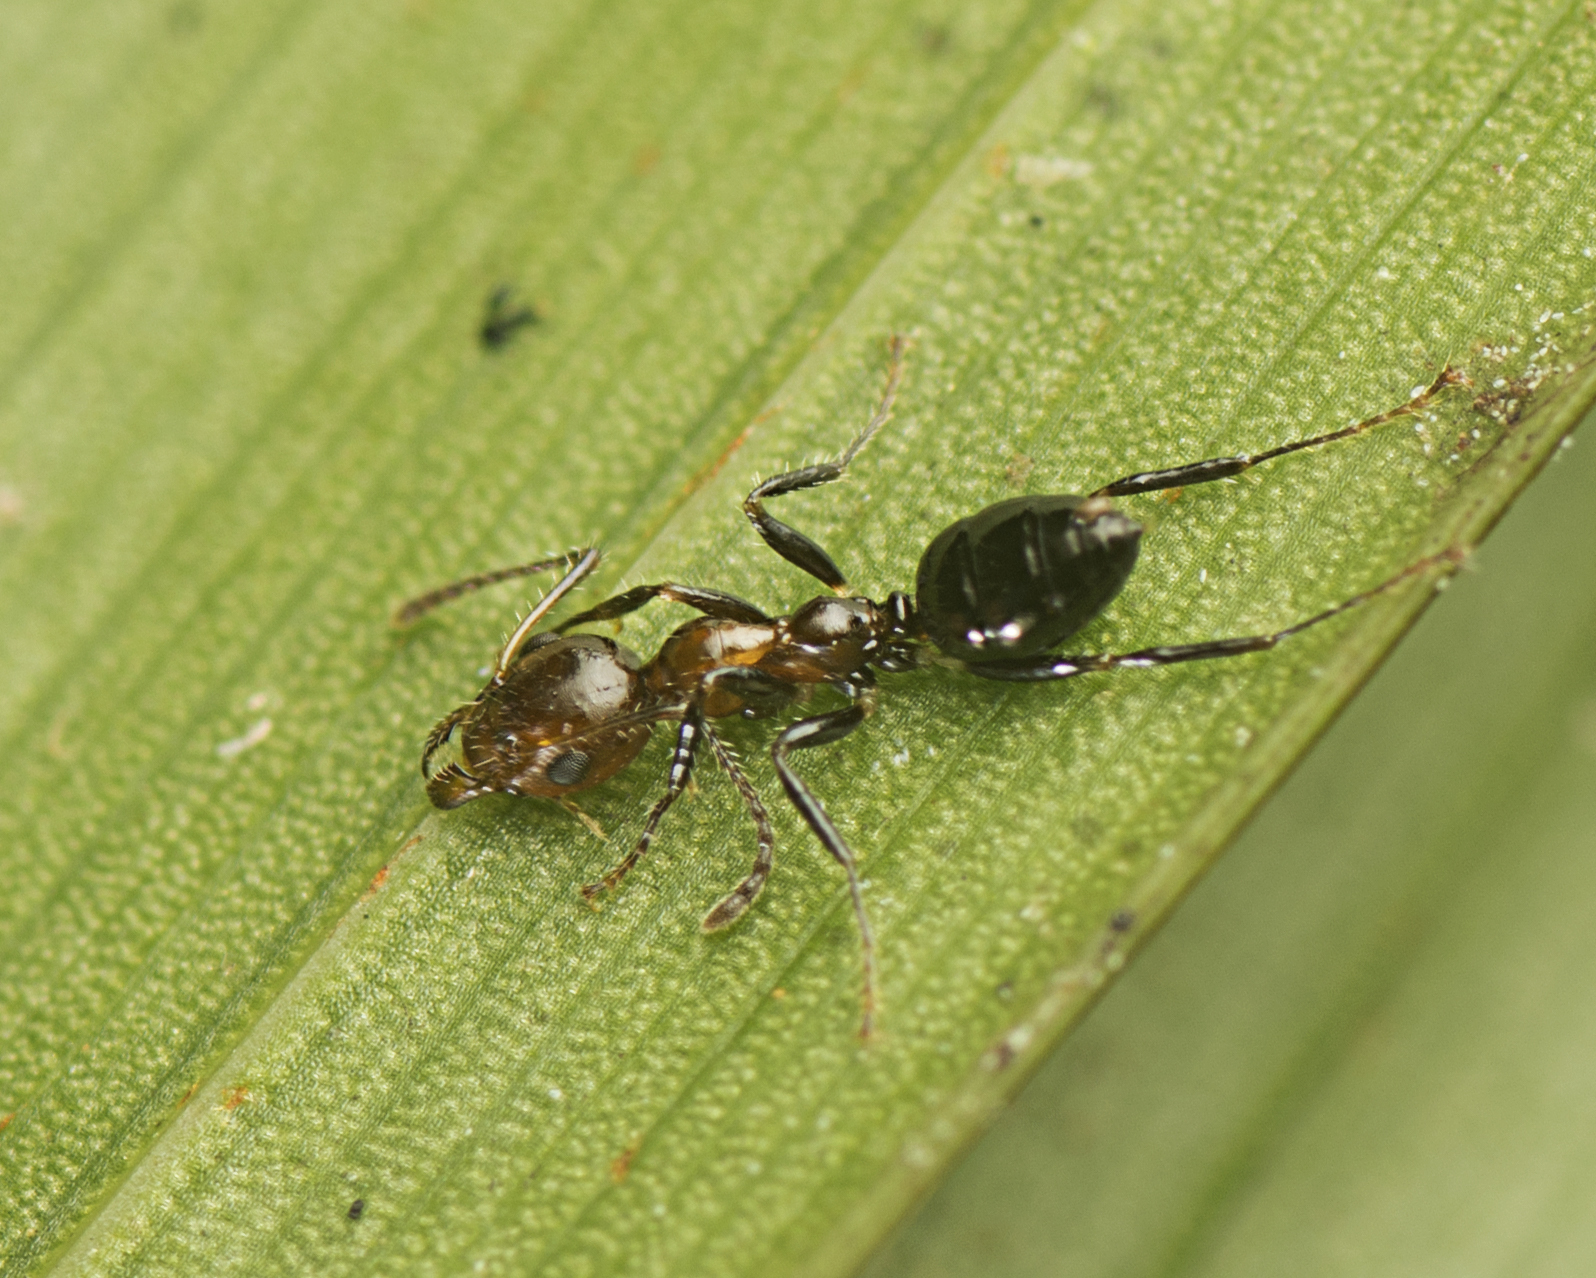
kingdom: Animalia
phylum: Arthropoda
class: Insecta
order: Hymenoptera
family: Formicidae
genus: Myrmecorhynchus
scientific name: Myrmecorhynchus emeryi
